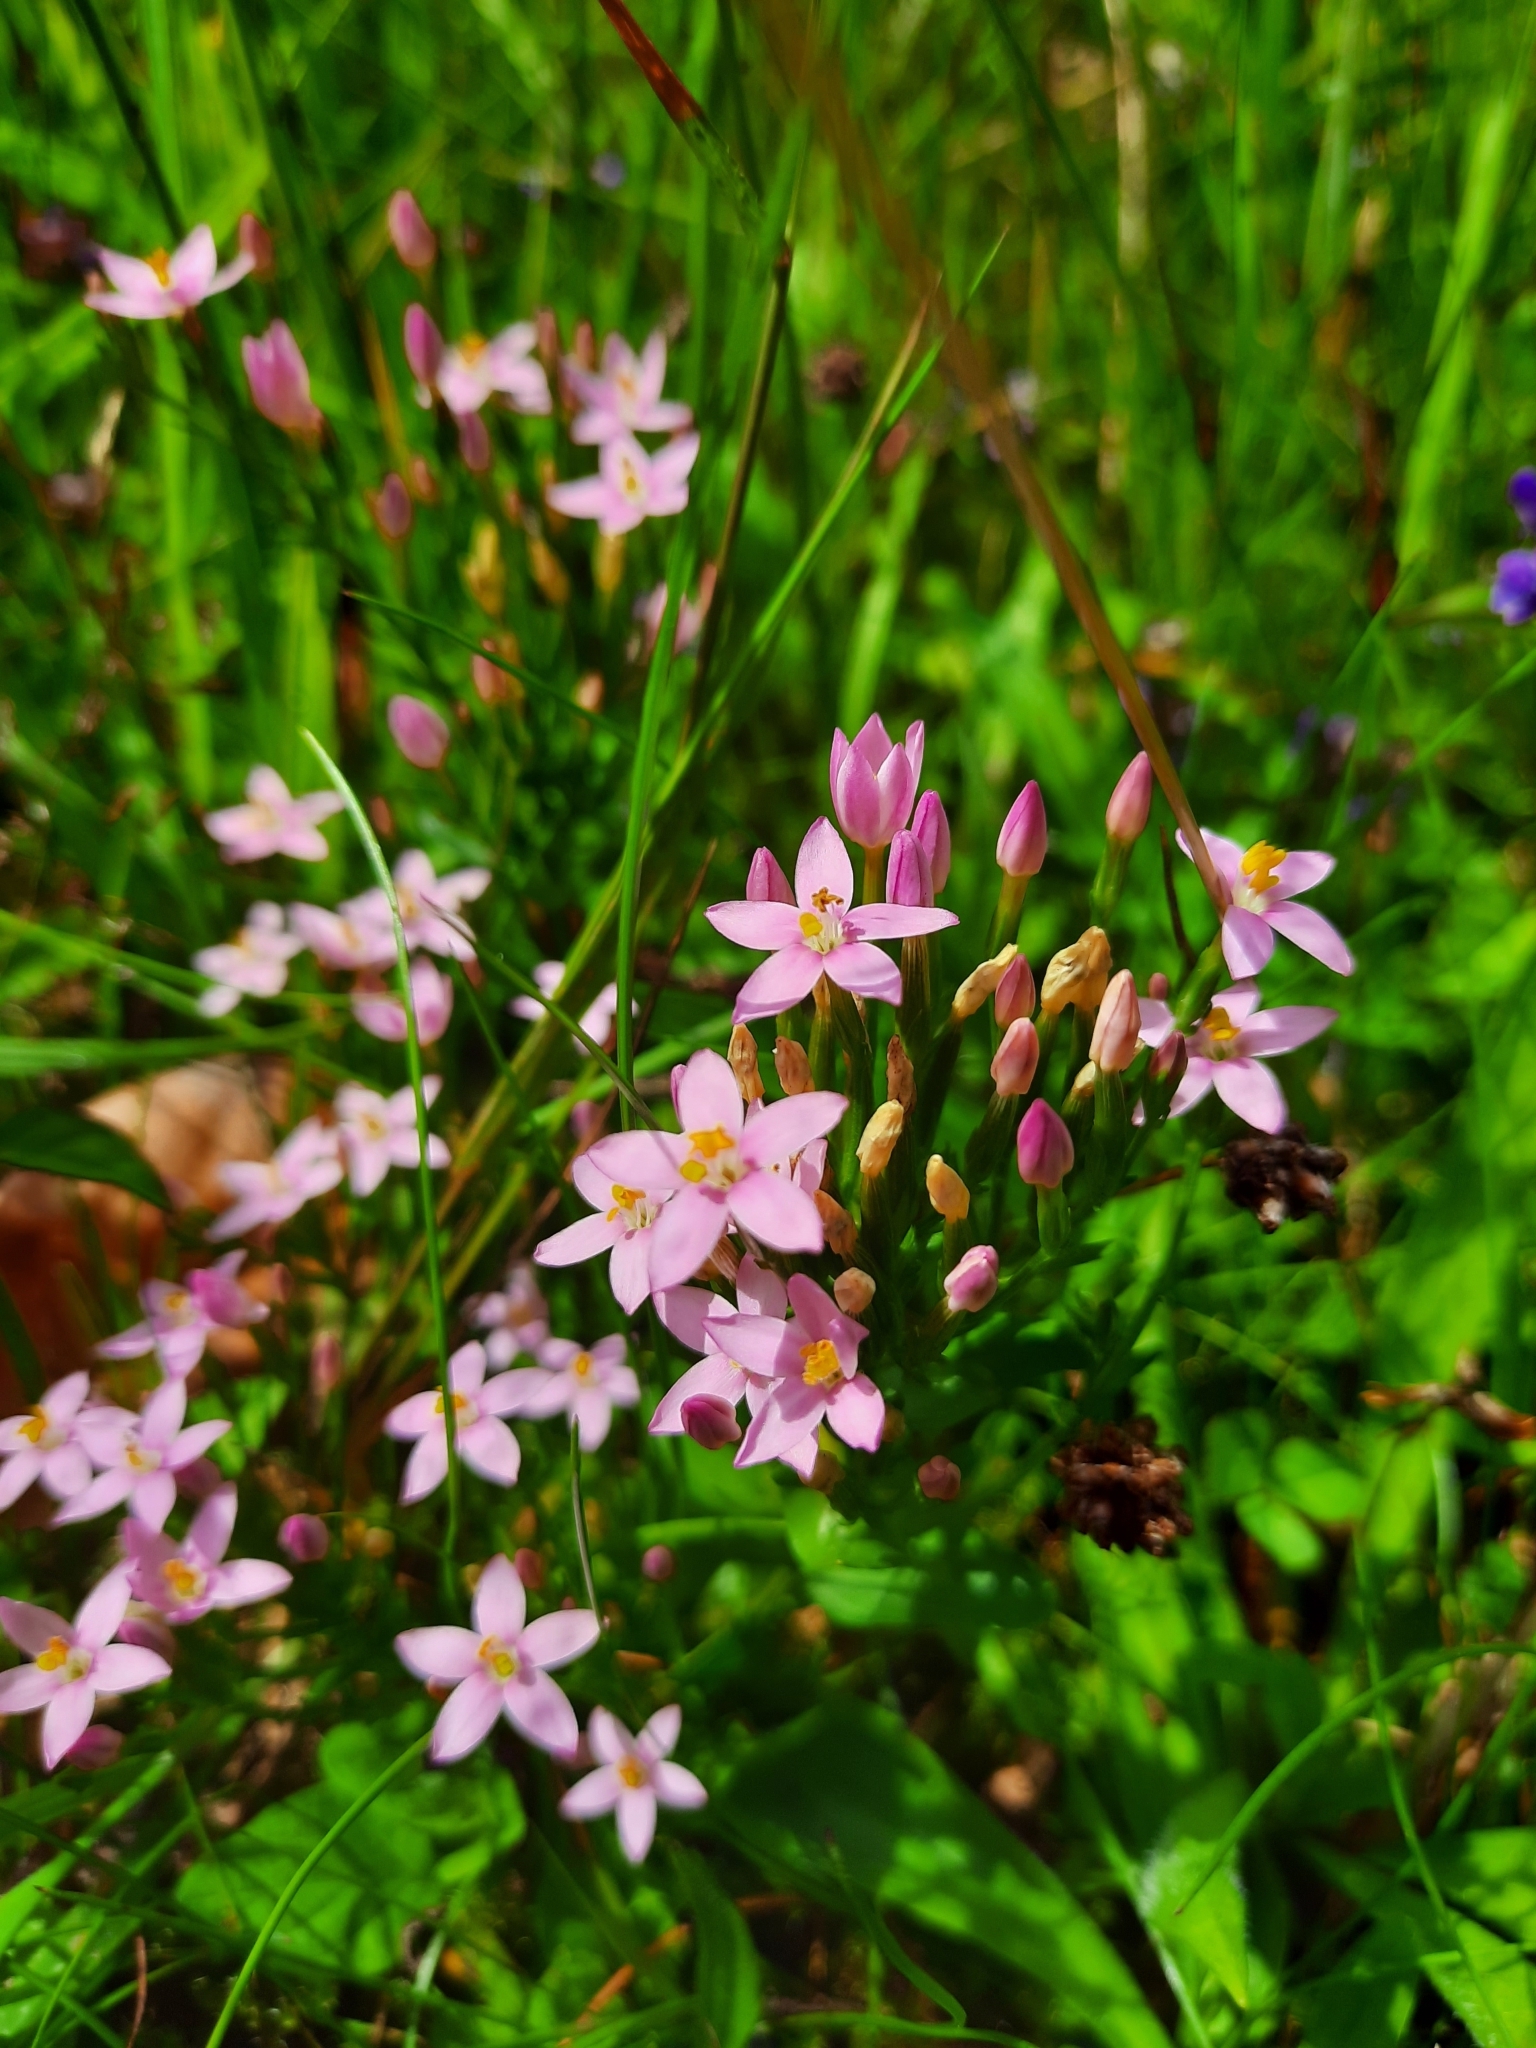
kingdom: Plantae
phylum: Tracheophyta
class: Magnoliopsida
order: Gentianales
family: Gentianaceae
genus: Centaurium
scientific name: Centaurium erythraea
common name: Common centaury
